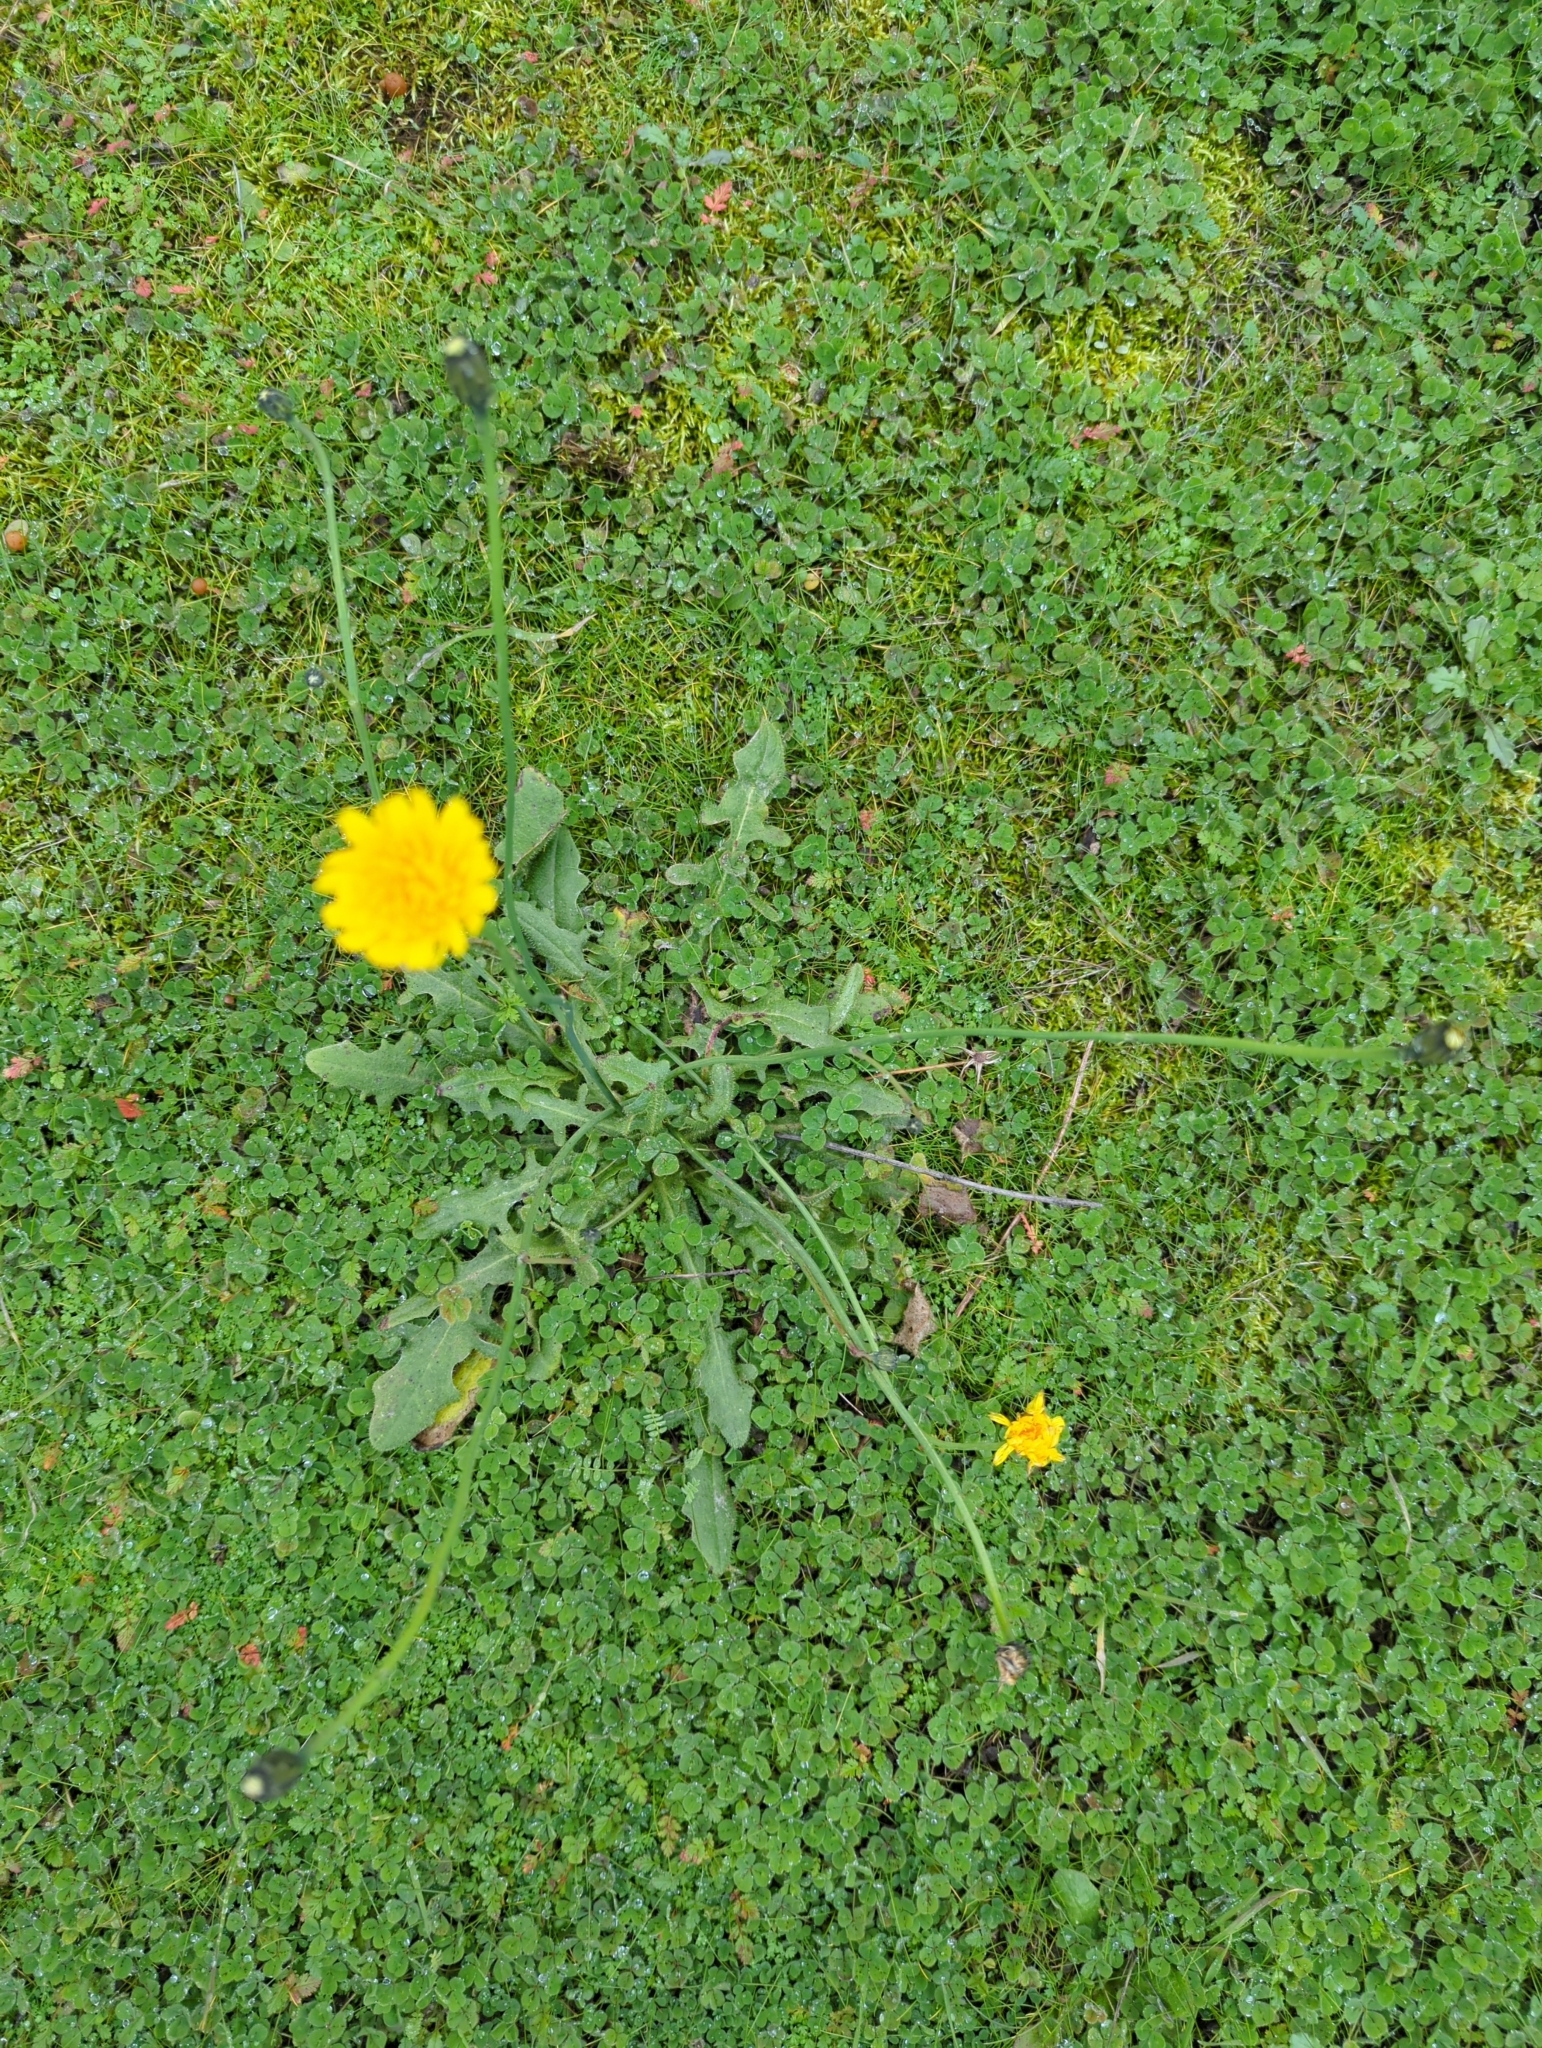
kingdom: Plantae
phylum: Tracheophyta
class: Magnoliopsida
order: Asterales
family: Asteraceae
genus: Hypochaeris
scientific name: Hypochaeris radicata
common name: Flatweed
